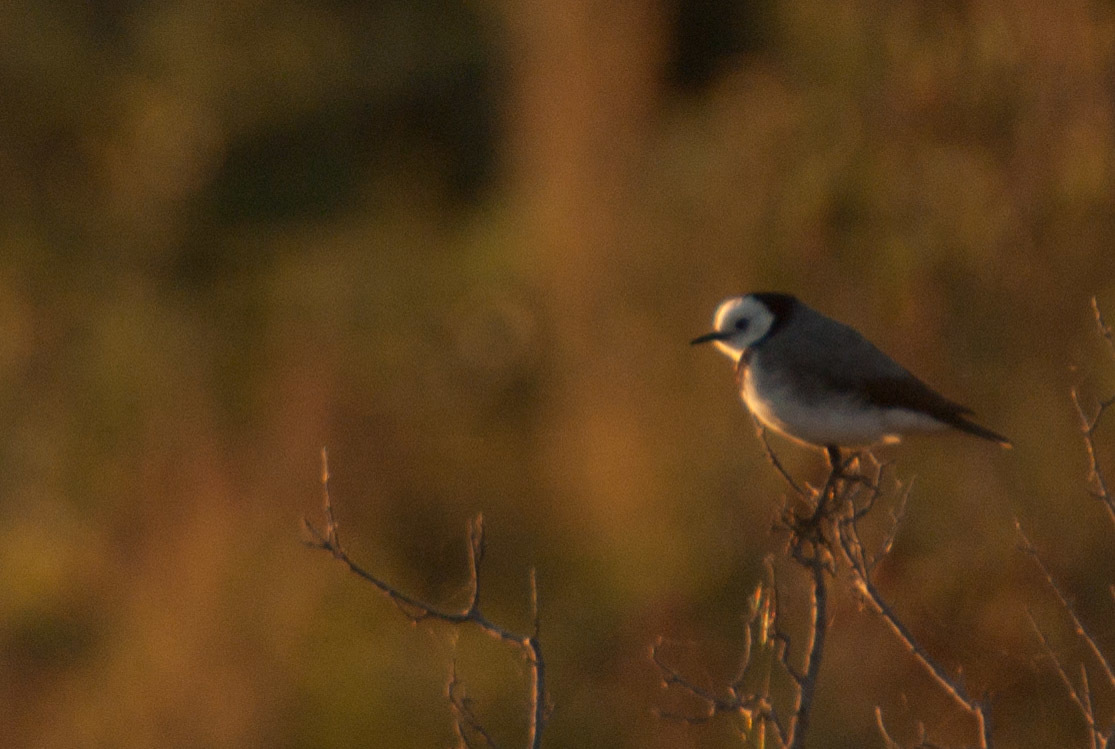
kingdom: Animalia
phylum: Chordata
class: Aves
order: Passeriformes
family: Meliphagidae
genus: Epthianura
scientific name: Epthianura albifrons
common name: White-fronted chat
